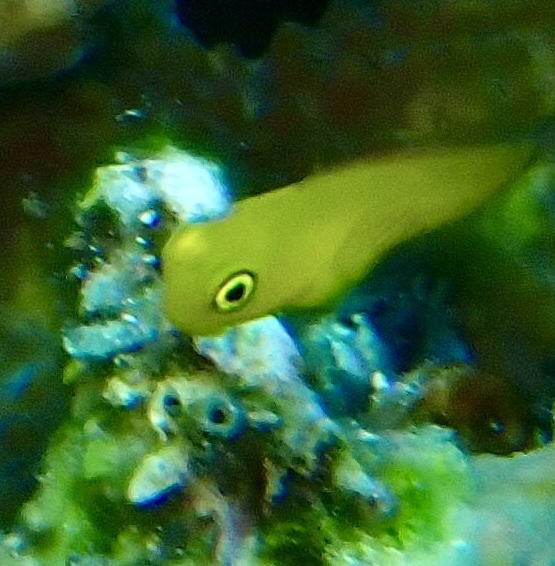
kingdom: Animalia
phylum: Chordata
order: Perciformes
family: Blenniidae
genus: Ecsenius
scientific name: Ecsenius lividanalis
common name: Blue-head combtooth-blenny
